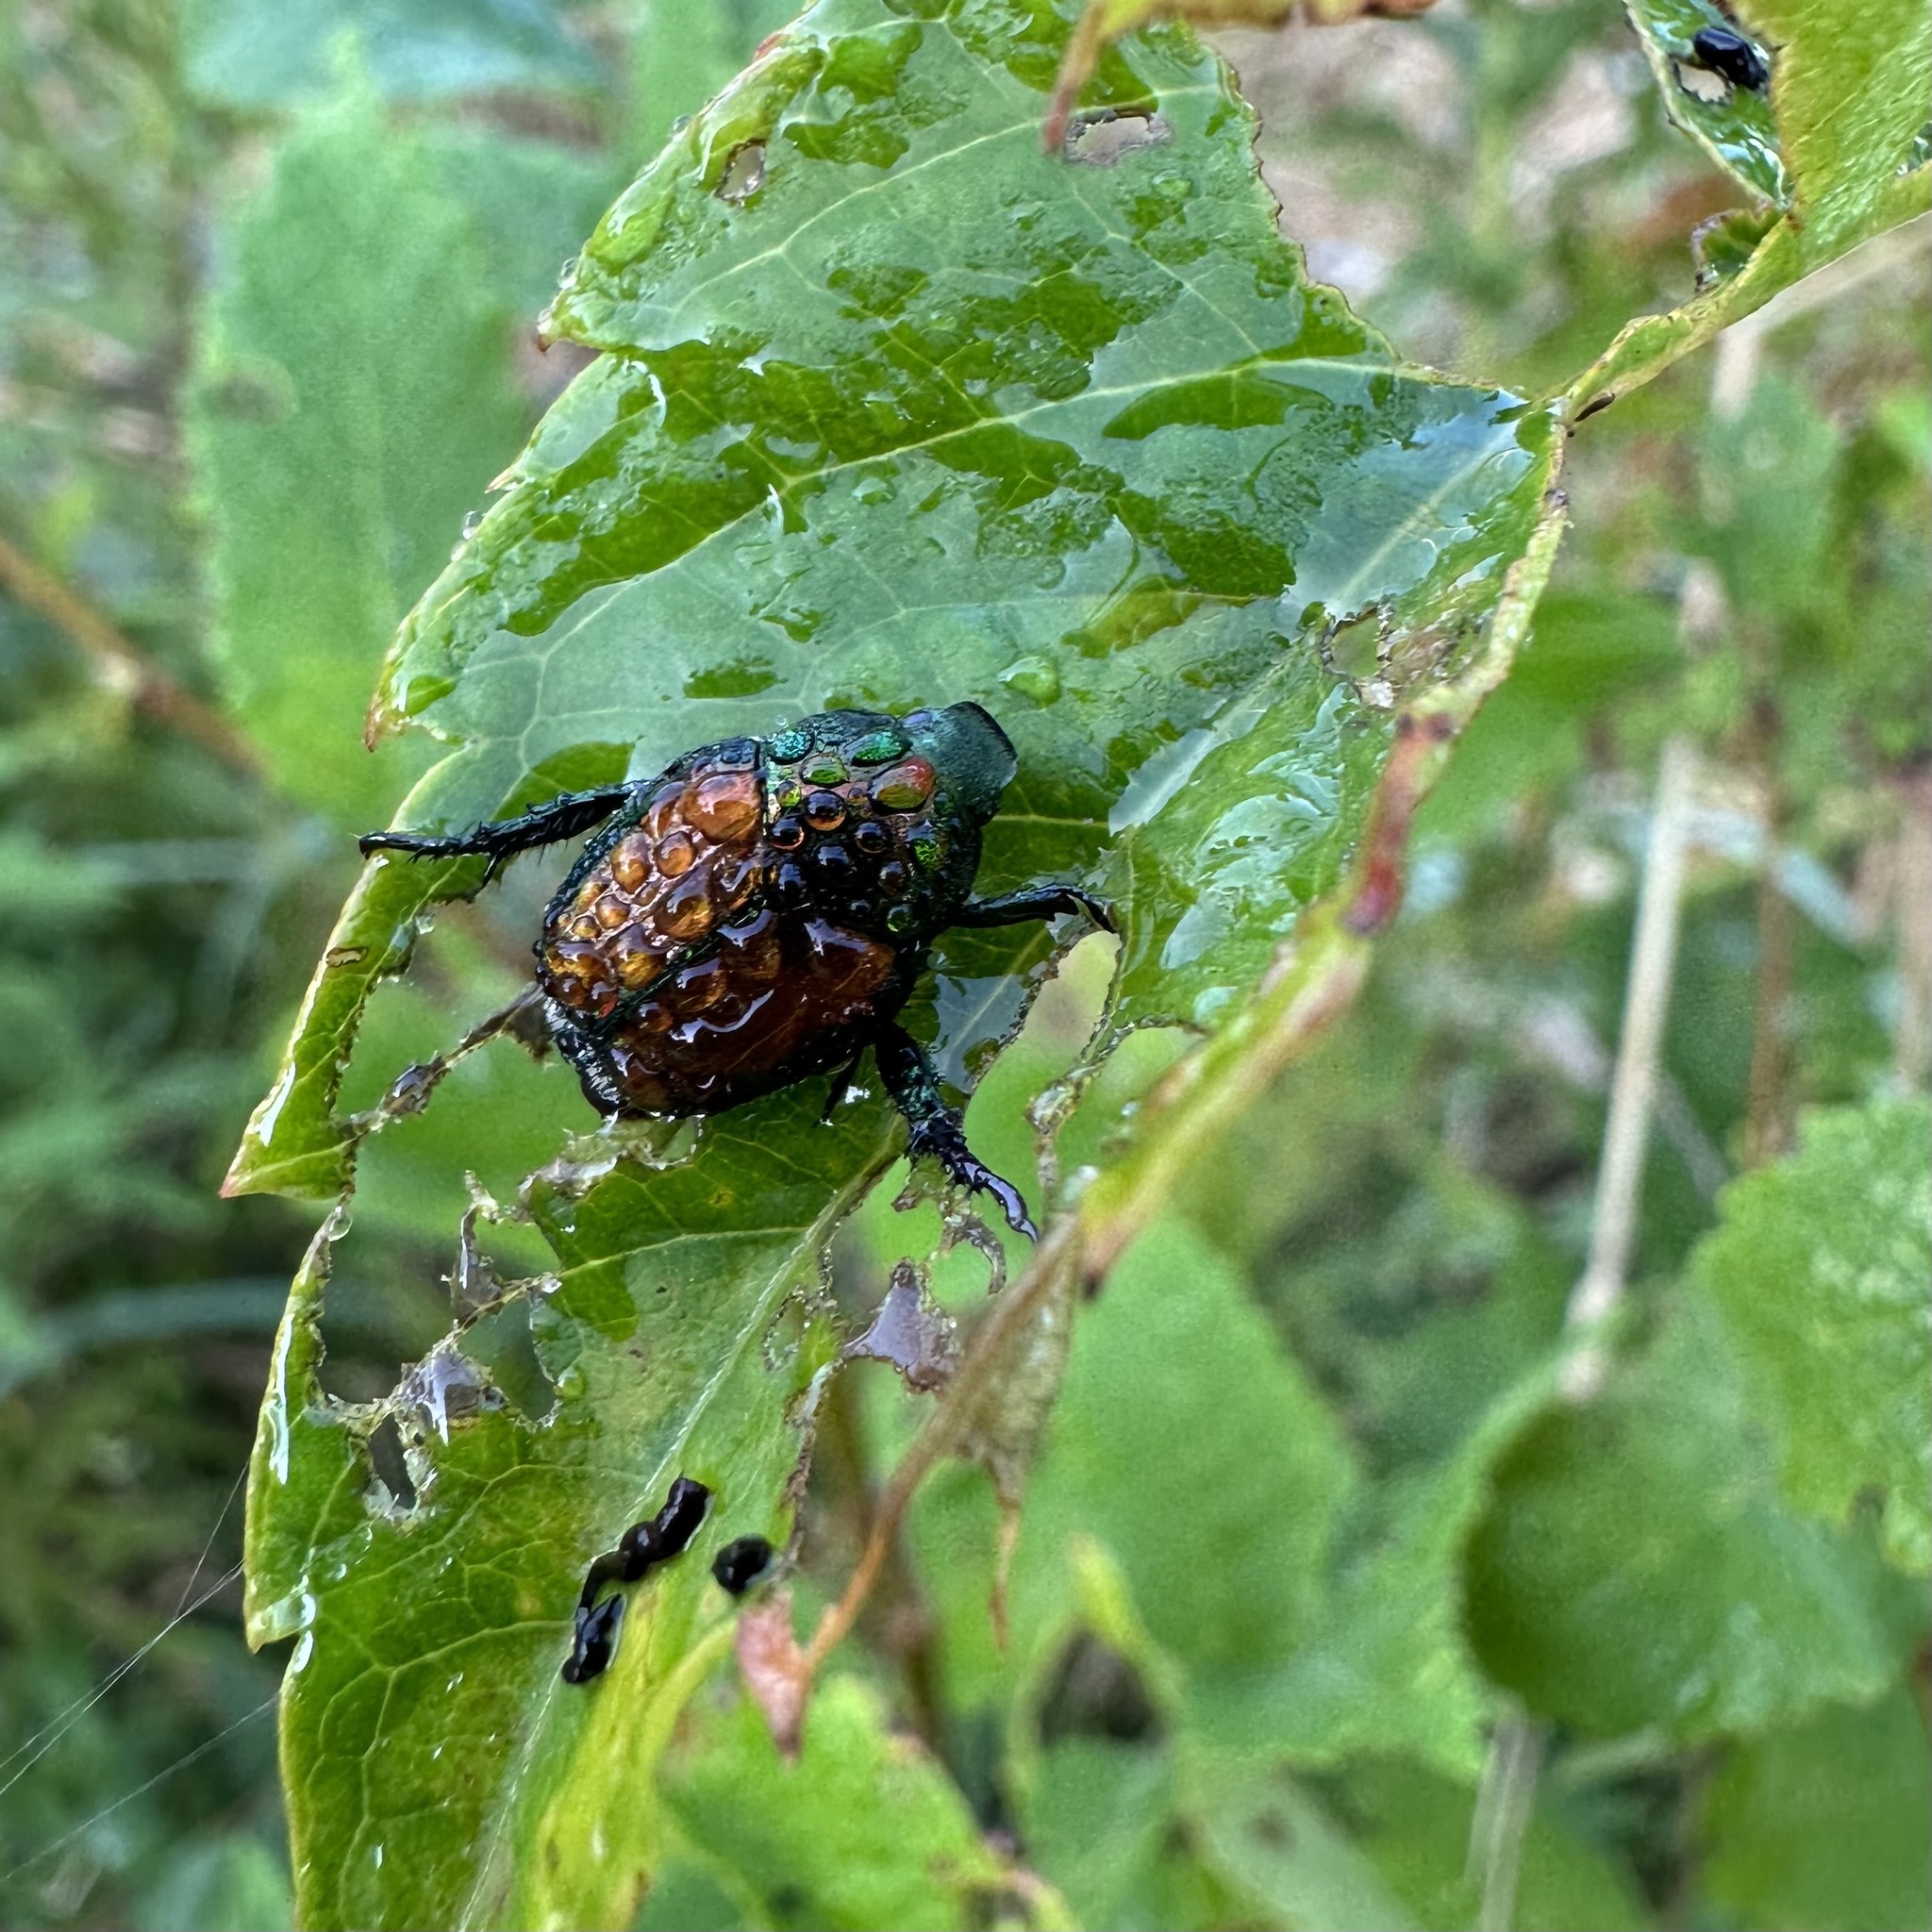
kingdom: Animalia
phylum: Arthropoda
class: Insecta
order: Coleoptera
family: Scarabaeidae
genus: Popillia
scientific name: Popillia japonica
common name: Japanese beetle
